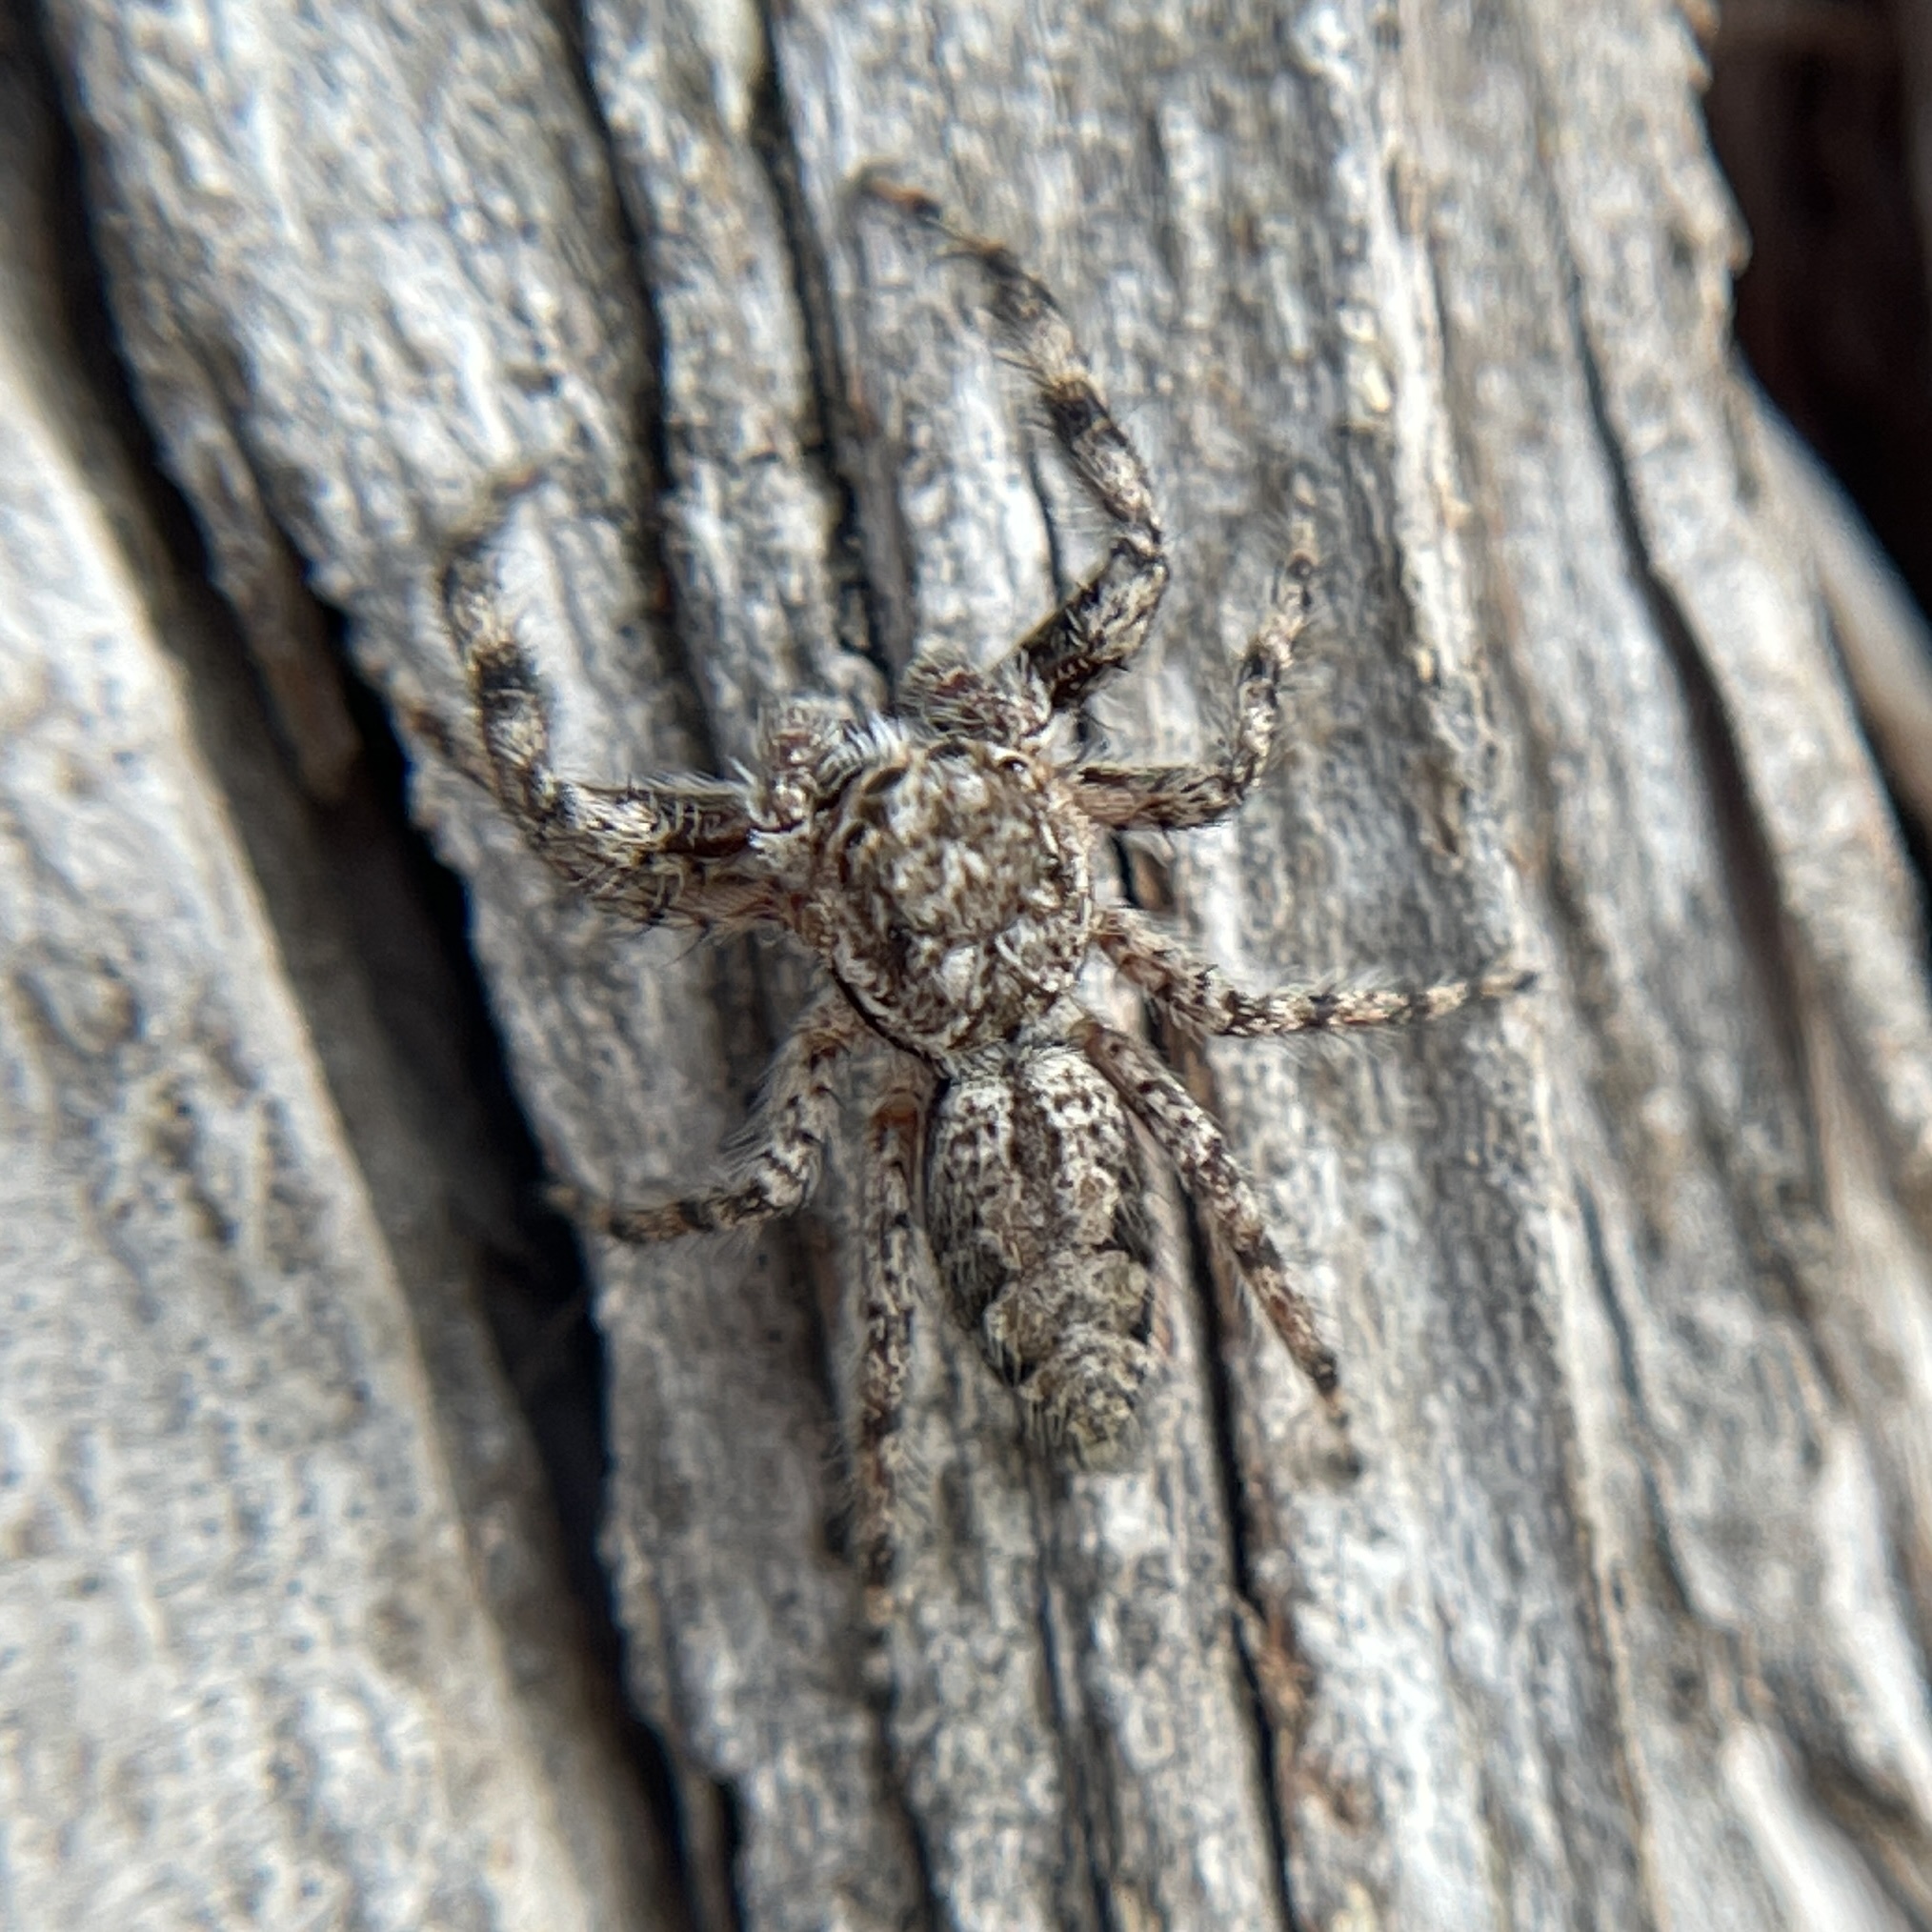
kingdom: Animalia
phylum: Arthropoda
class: Arachnida
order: Araneae
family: Salticidae
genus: Platycryptus
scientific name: Platycryptus undatus
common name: Tan jumping spider
